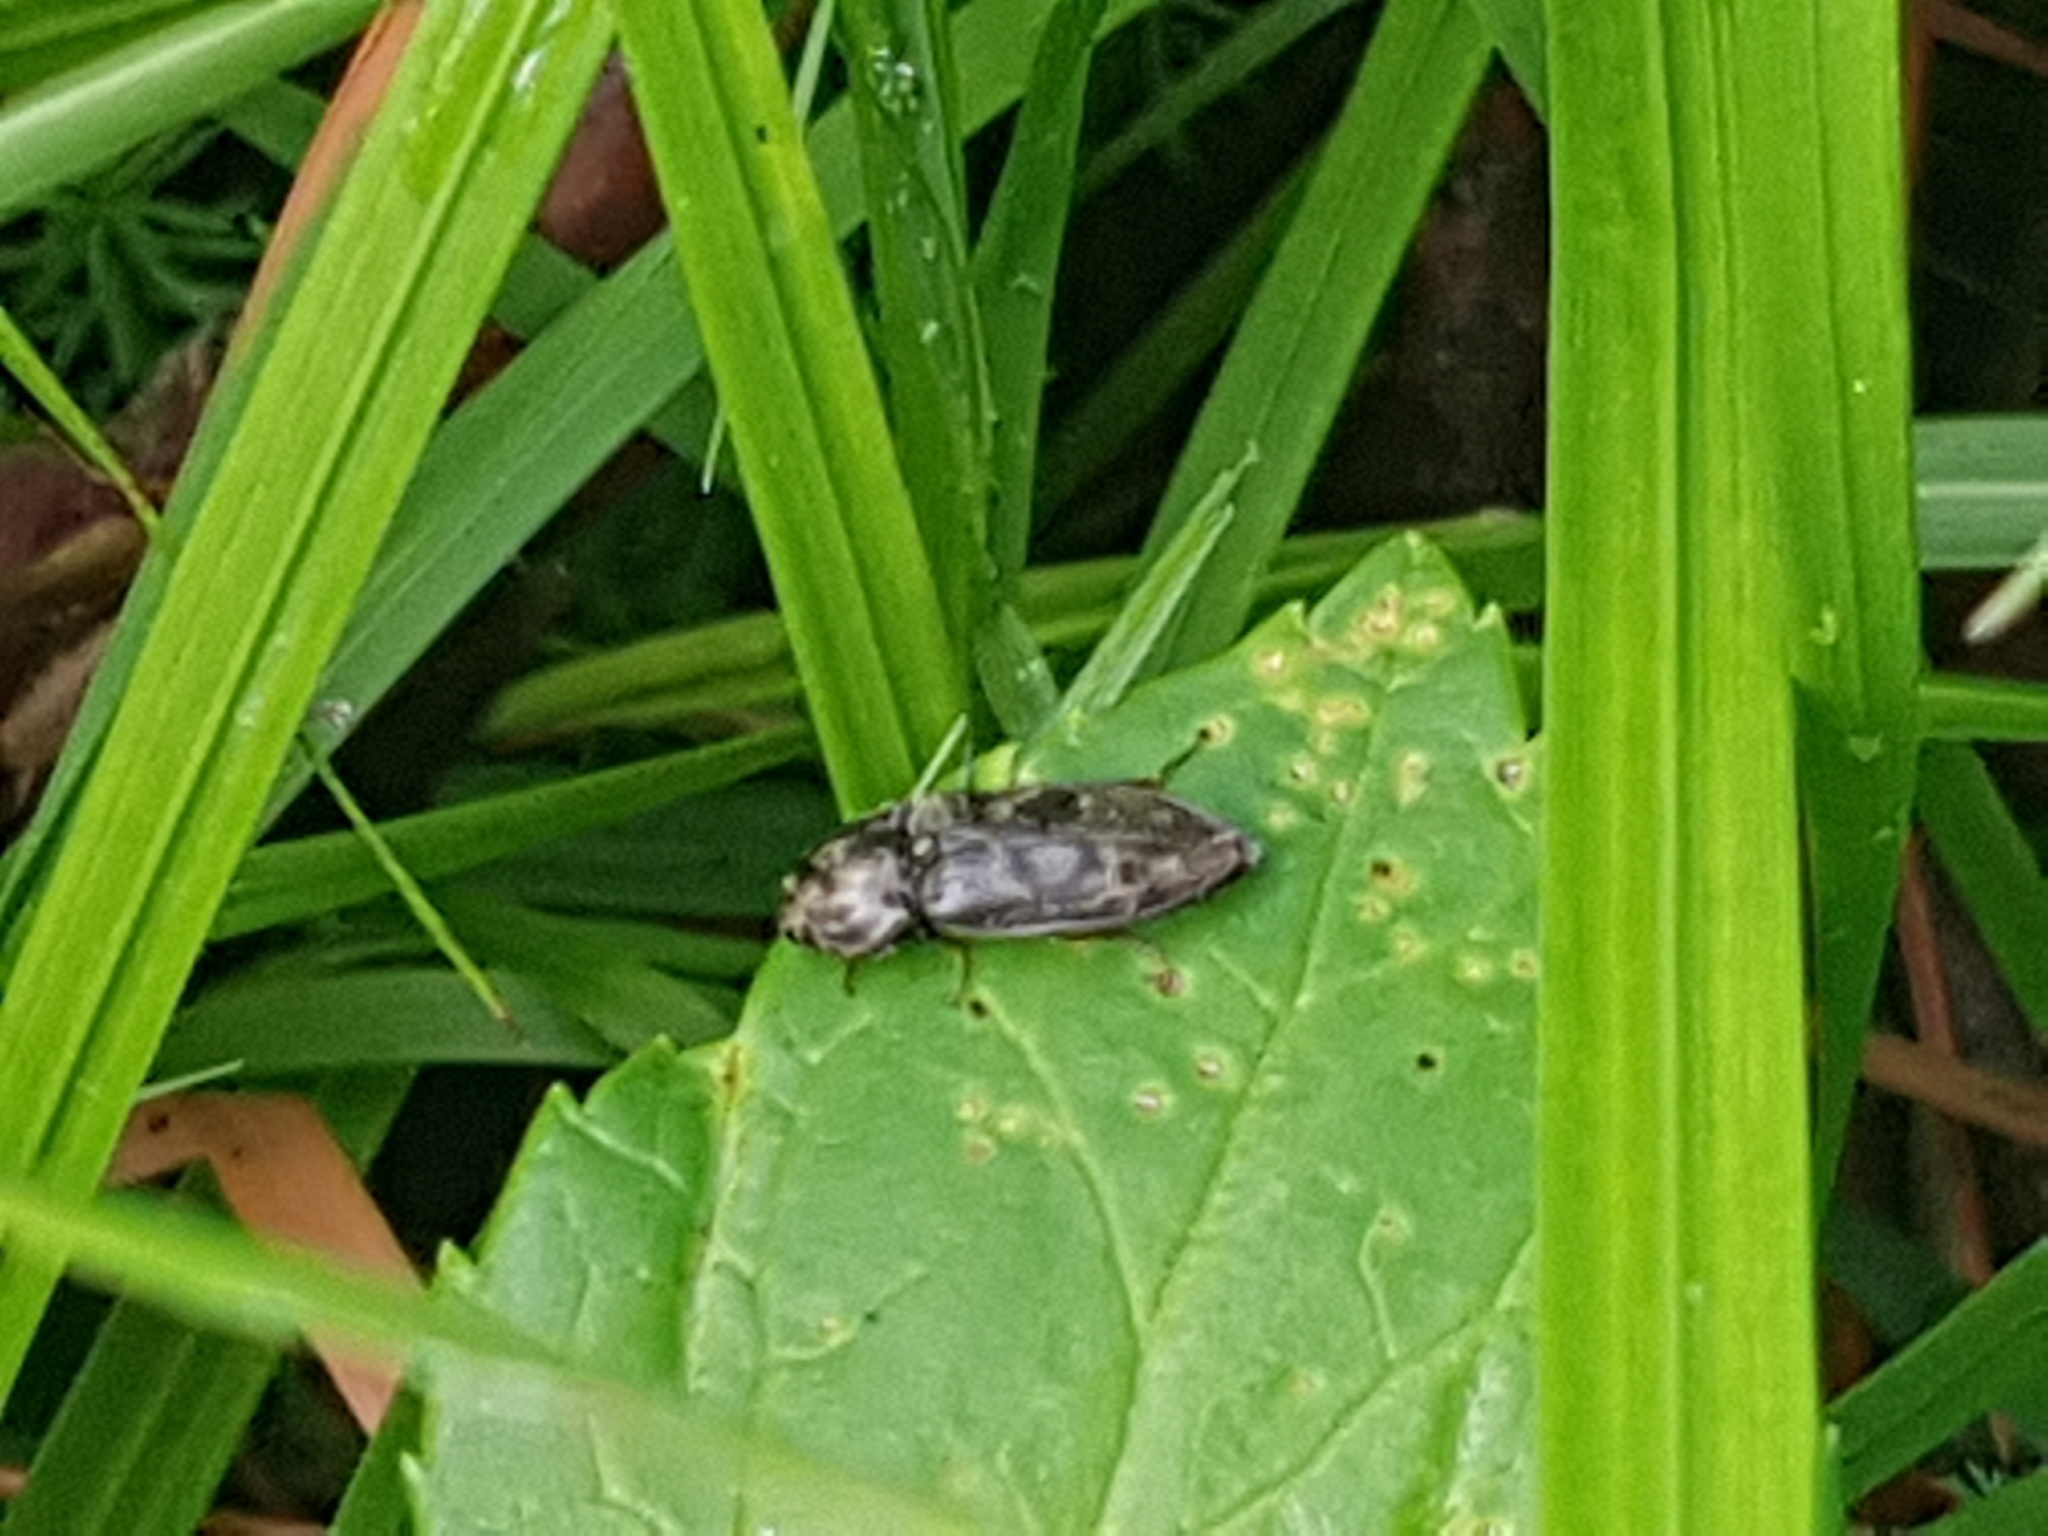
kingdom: Animalia
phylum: Arthropoda
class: Insecta
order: Coleoptera
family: Elateridae
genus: Prosternon
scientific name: Prosternon tessellatum
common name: Chequered click beetle
